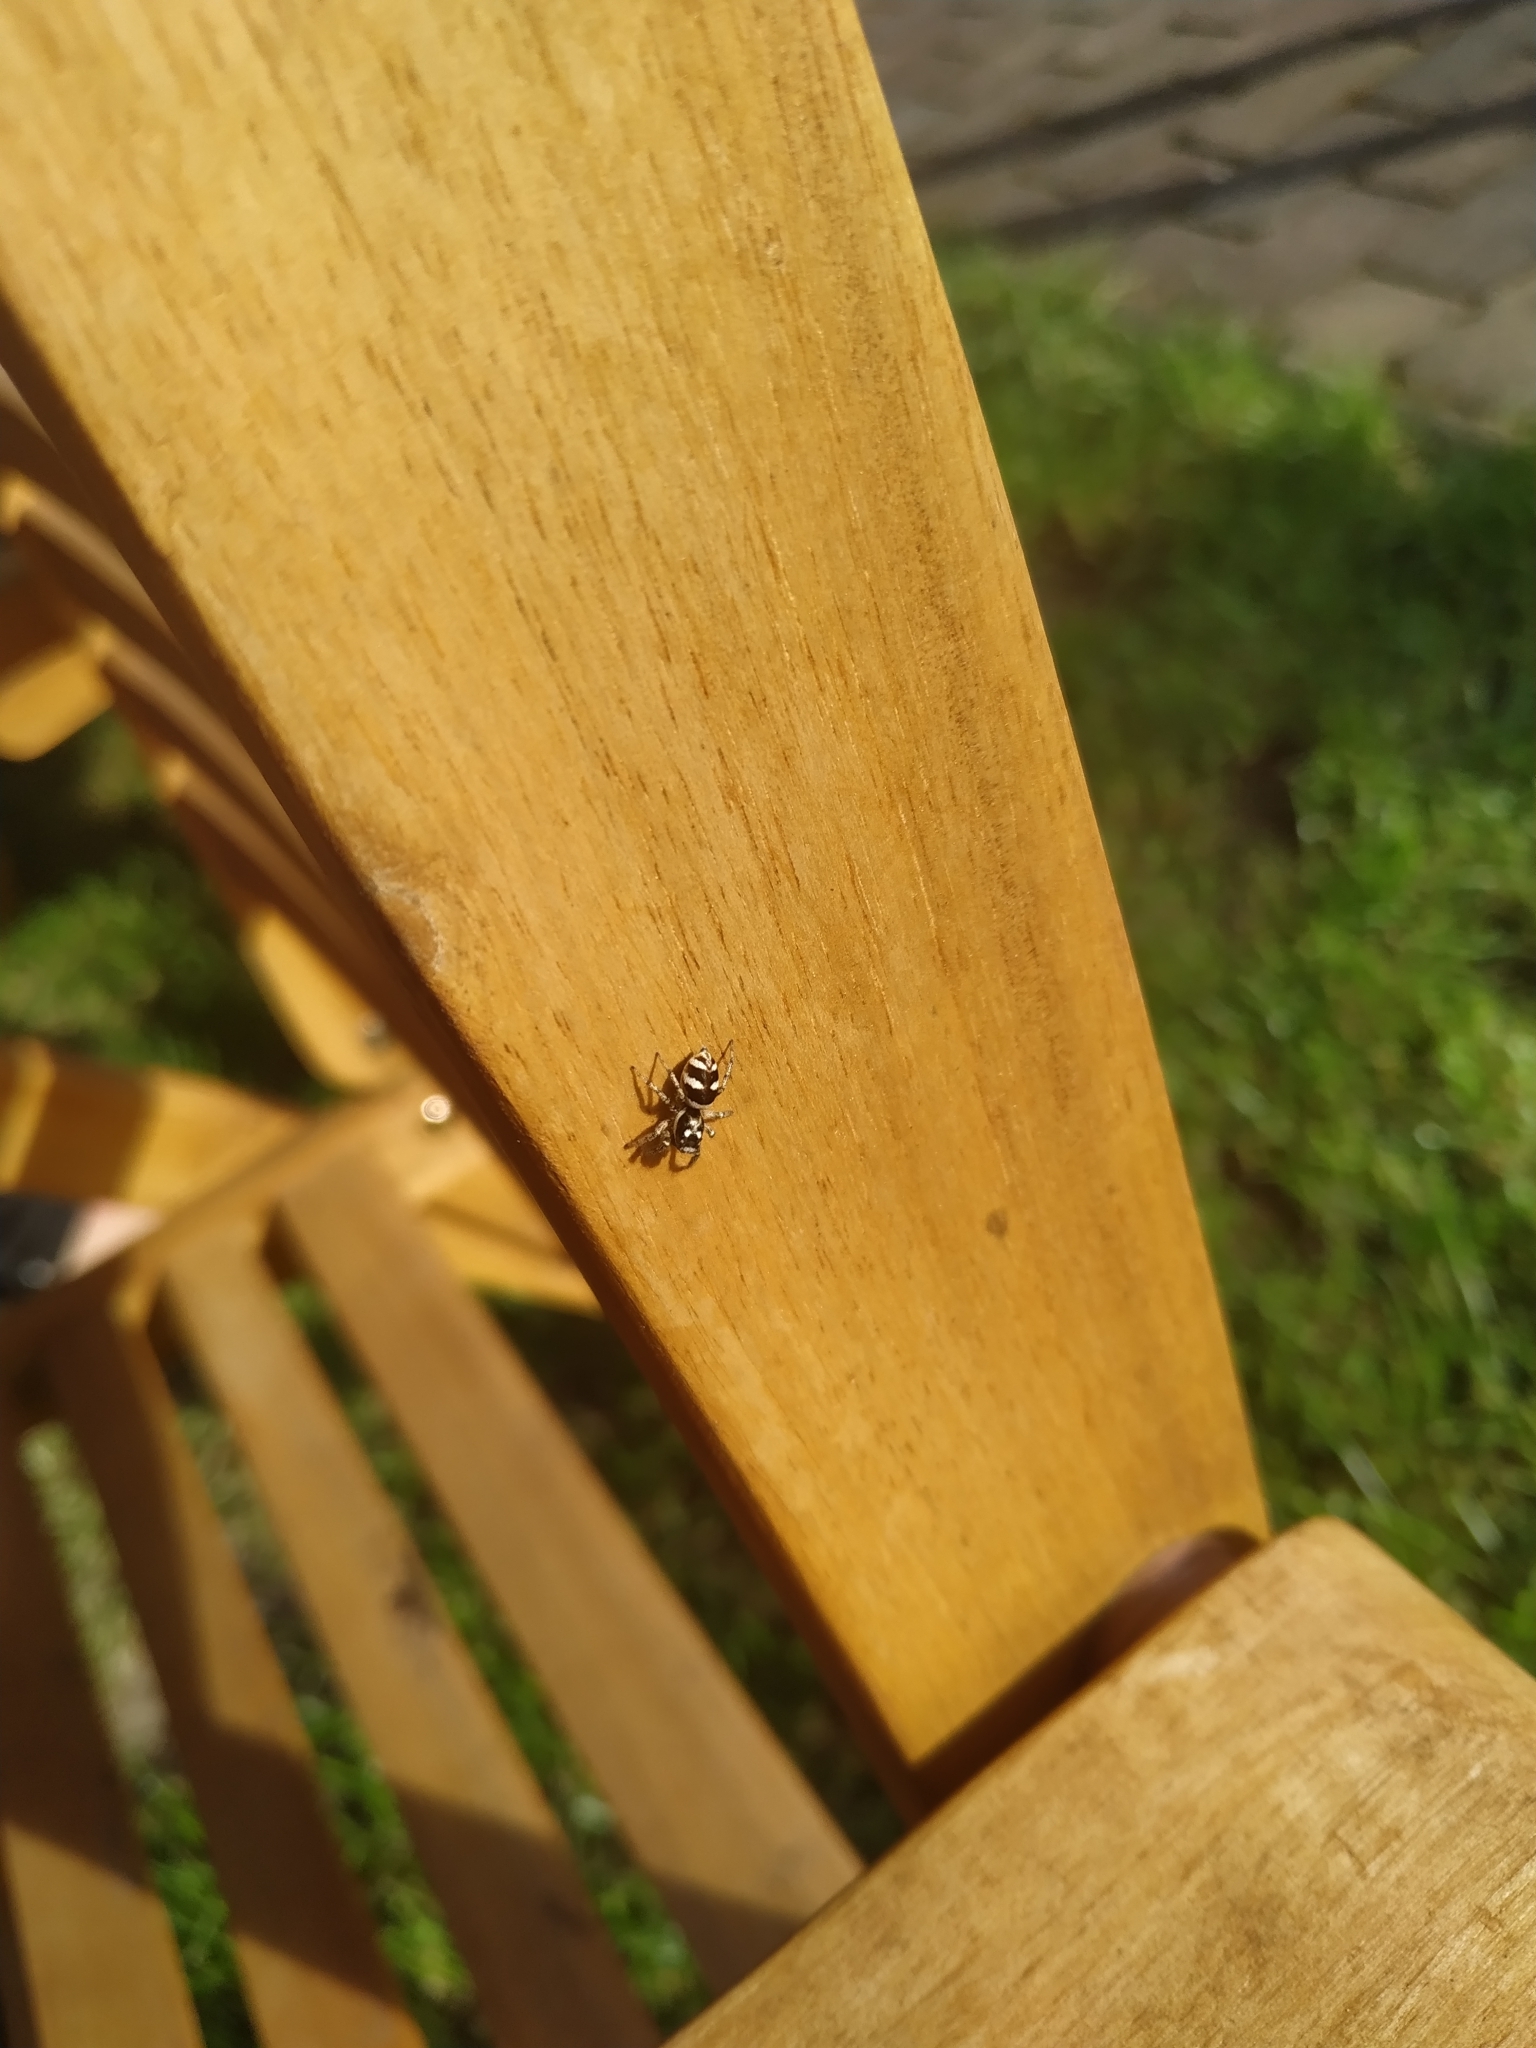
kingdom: Animalia
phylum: Arthropoda
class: Arachnida
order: Araneae
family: Salticidae
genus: Salticus
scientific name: Salticus scenicus
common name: Zebra jumper
